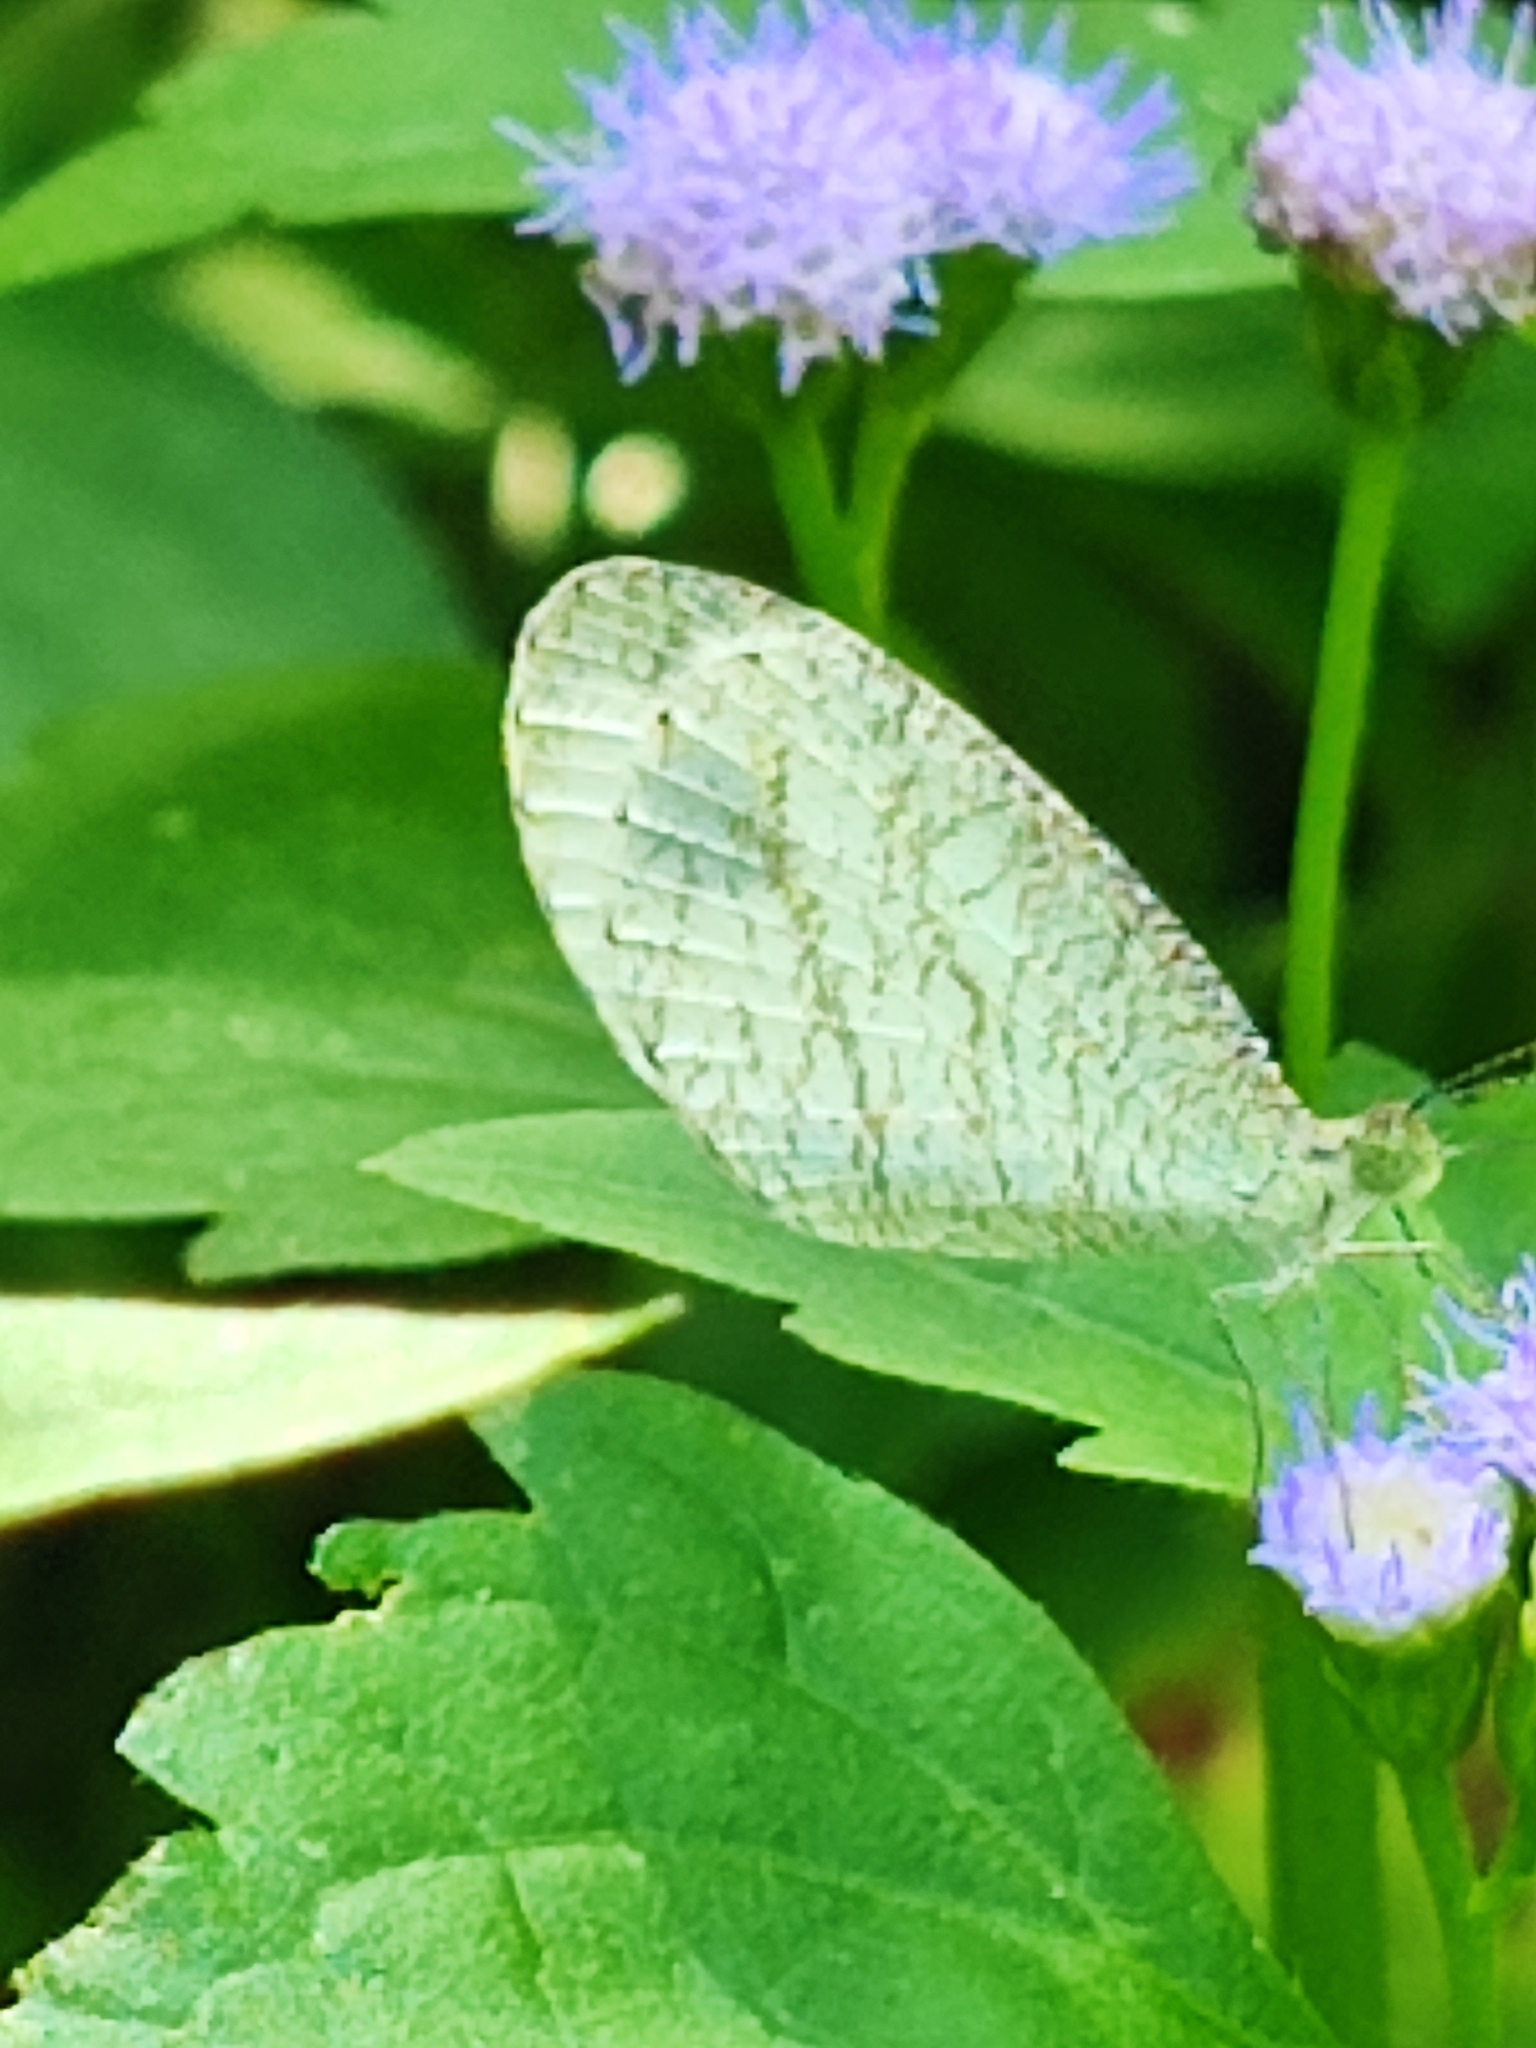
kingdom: Animalia
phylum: Arthropoda
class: Insecta
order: Lepidoptera
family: Pieridae
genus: Leptosia
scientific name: Leptosia nina
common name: Psyche
